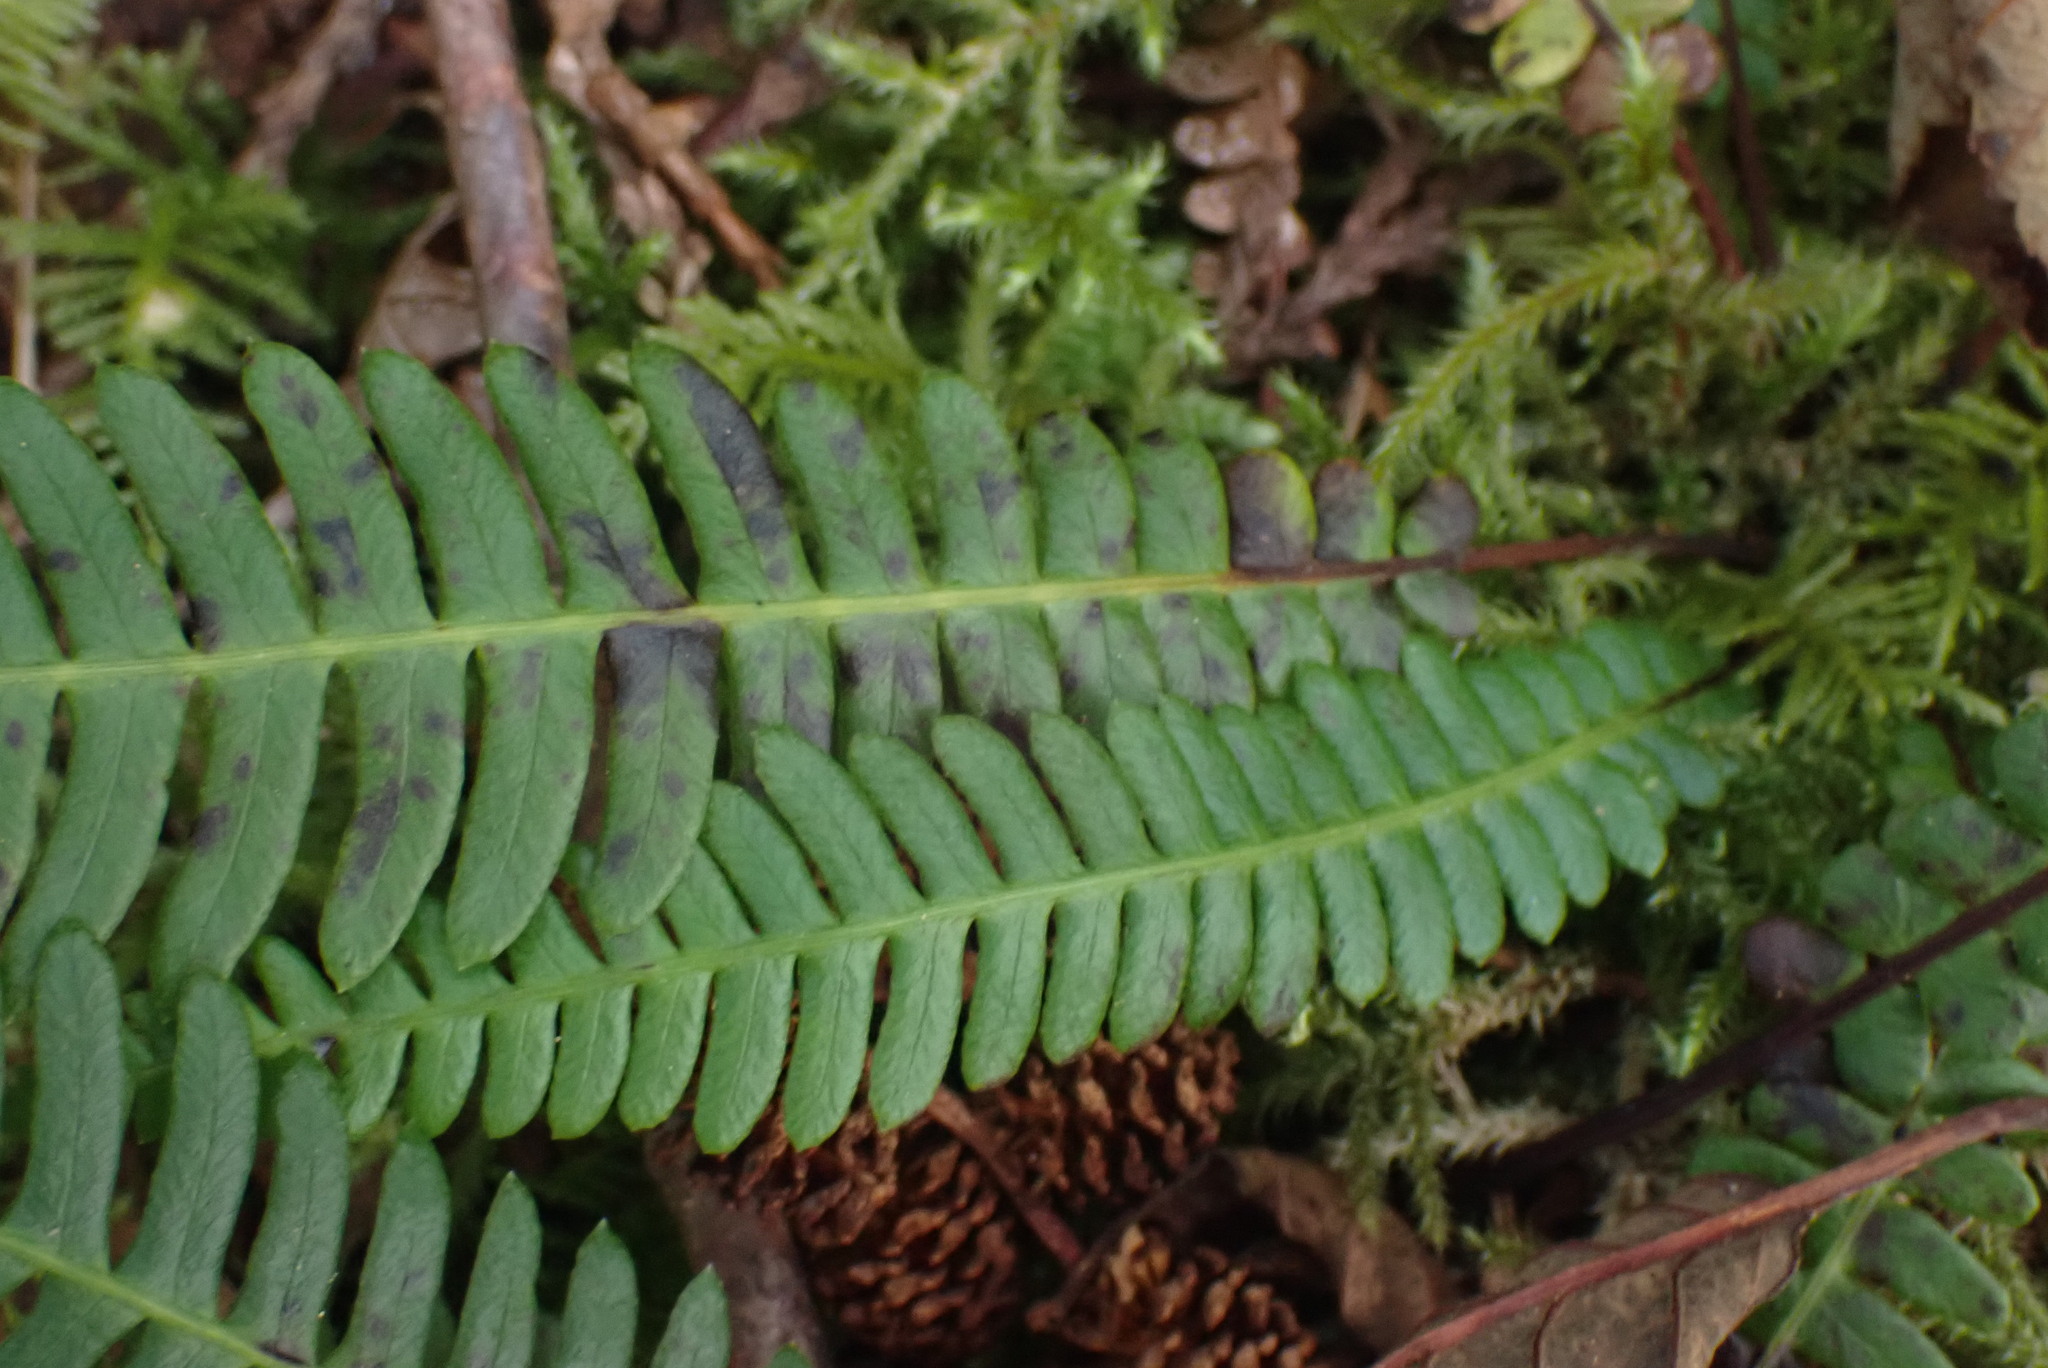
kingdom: Plantae
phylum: Tracheophyta
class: Polypodiopsida
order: Polypodiales
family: Blechnaceae
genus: Struthiopteris
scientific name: Struthiopteris spicant
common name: Deer fern
